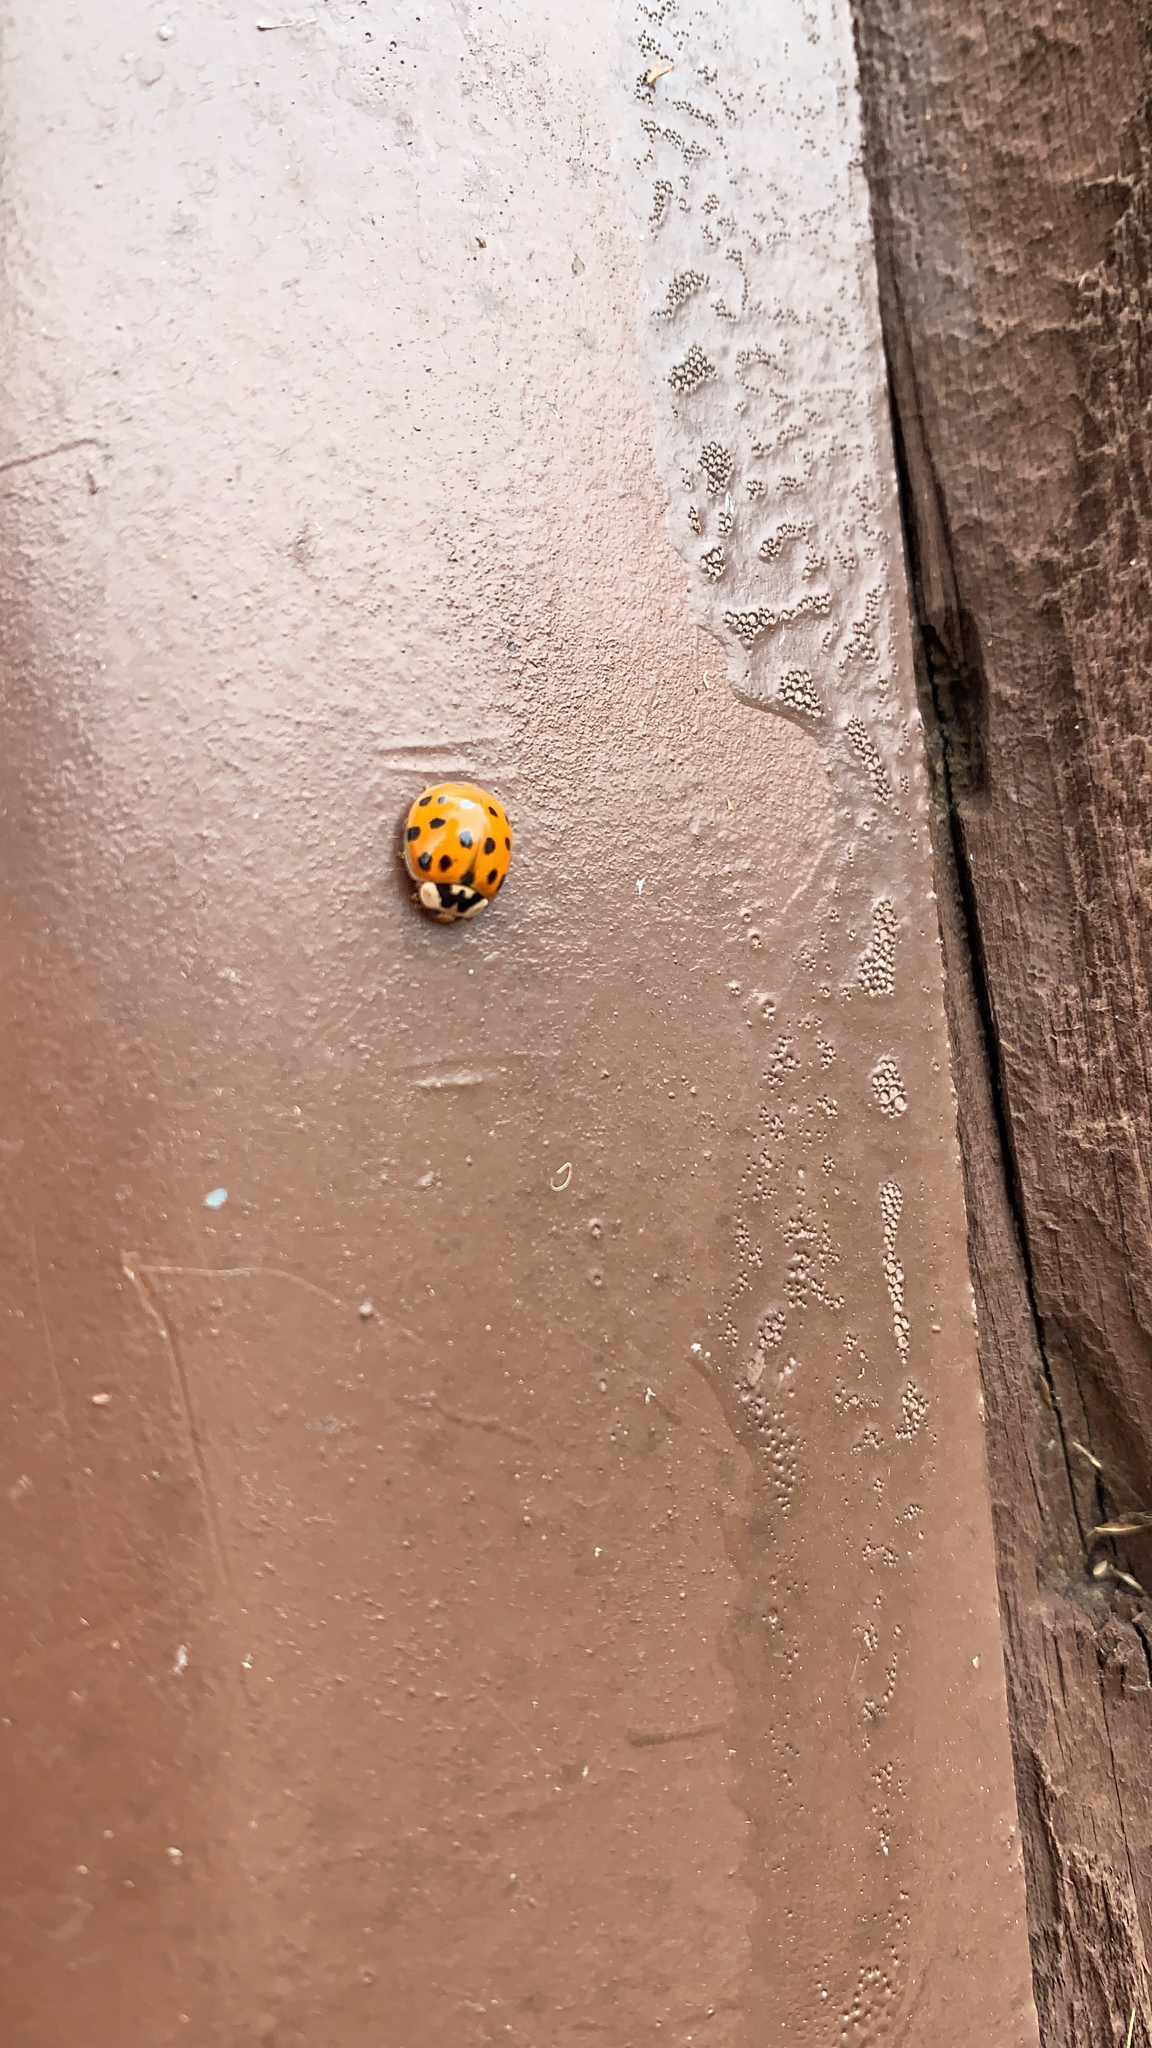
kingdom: Animalia
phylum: Arthropoda
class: Insecta
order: Coleoptera
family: Coccinellidae
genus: Harmonia
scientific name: Harmonia axyridis
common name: Harlequin ladybird
